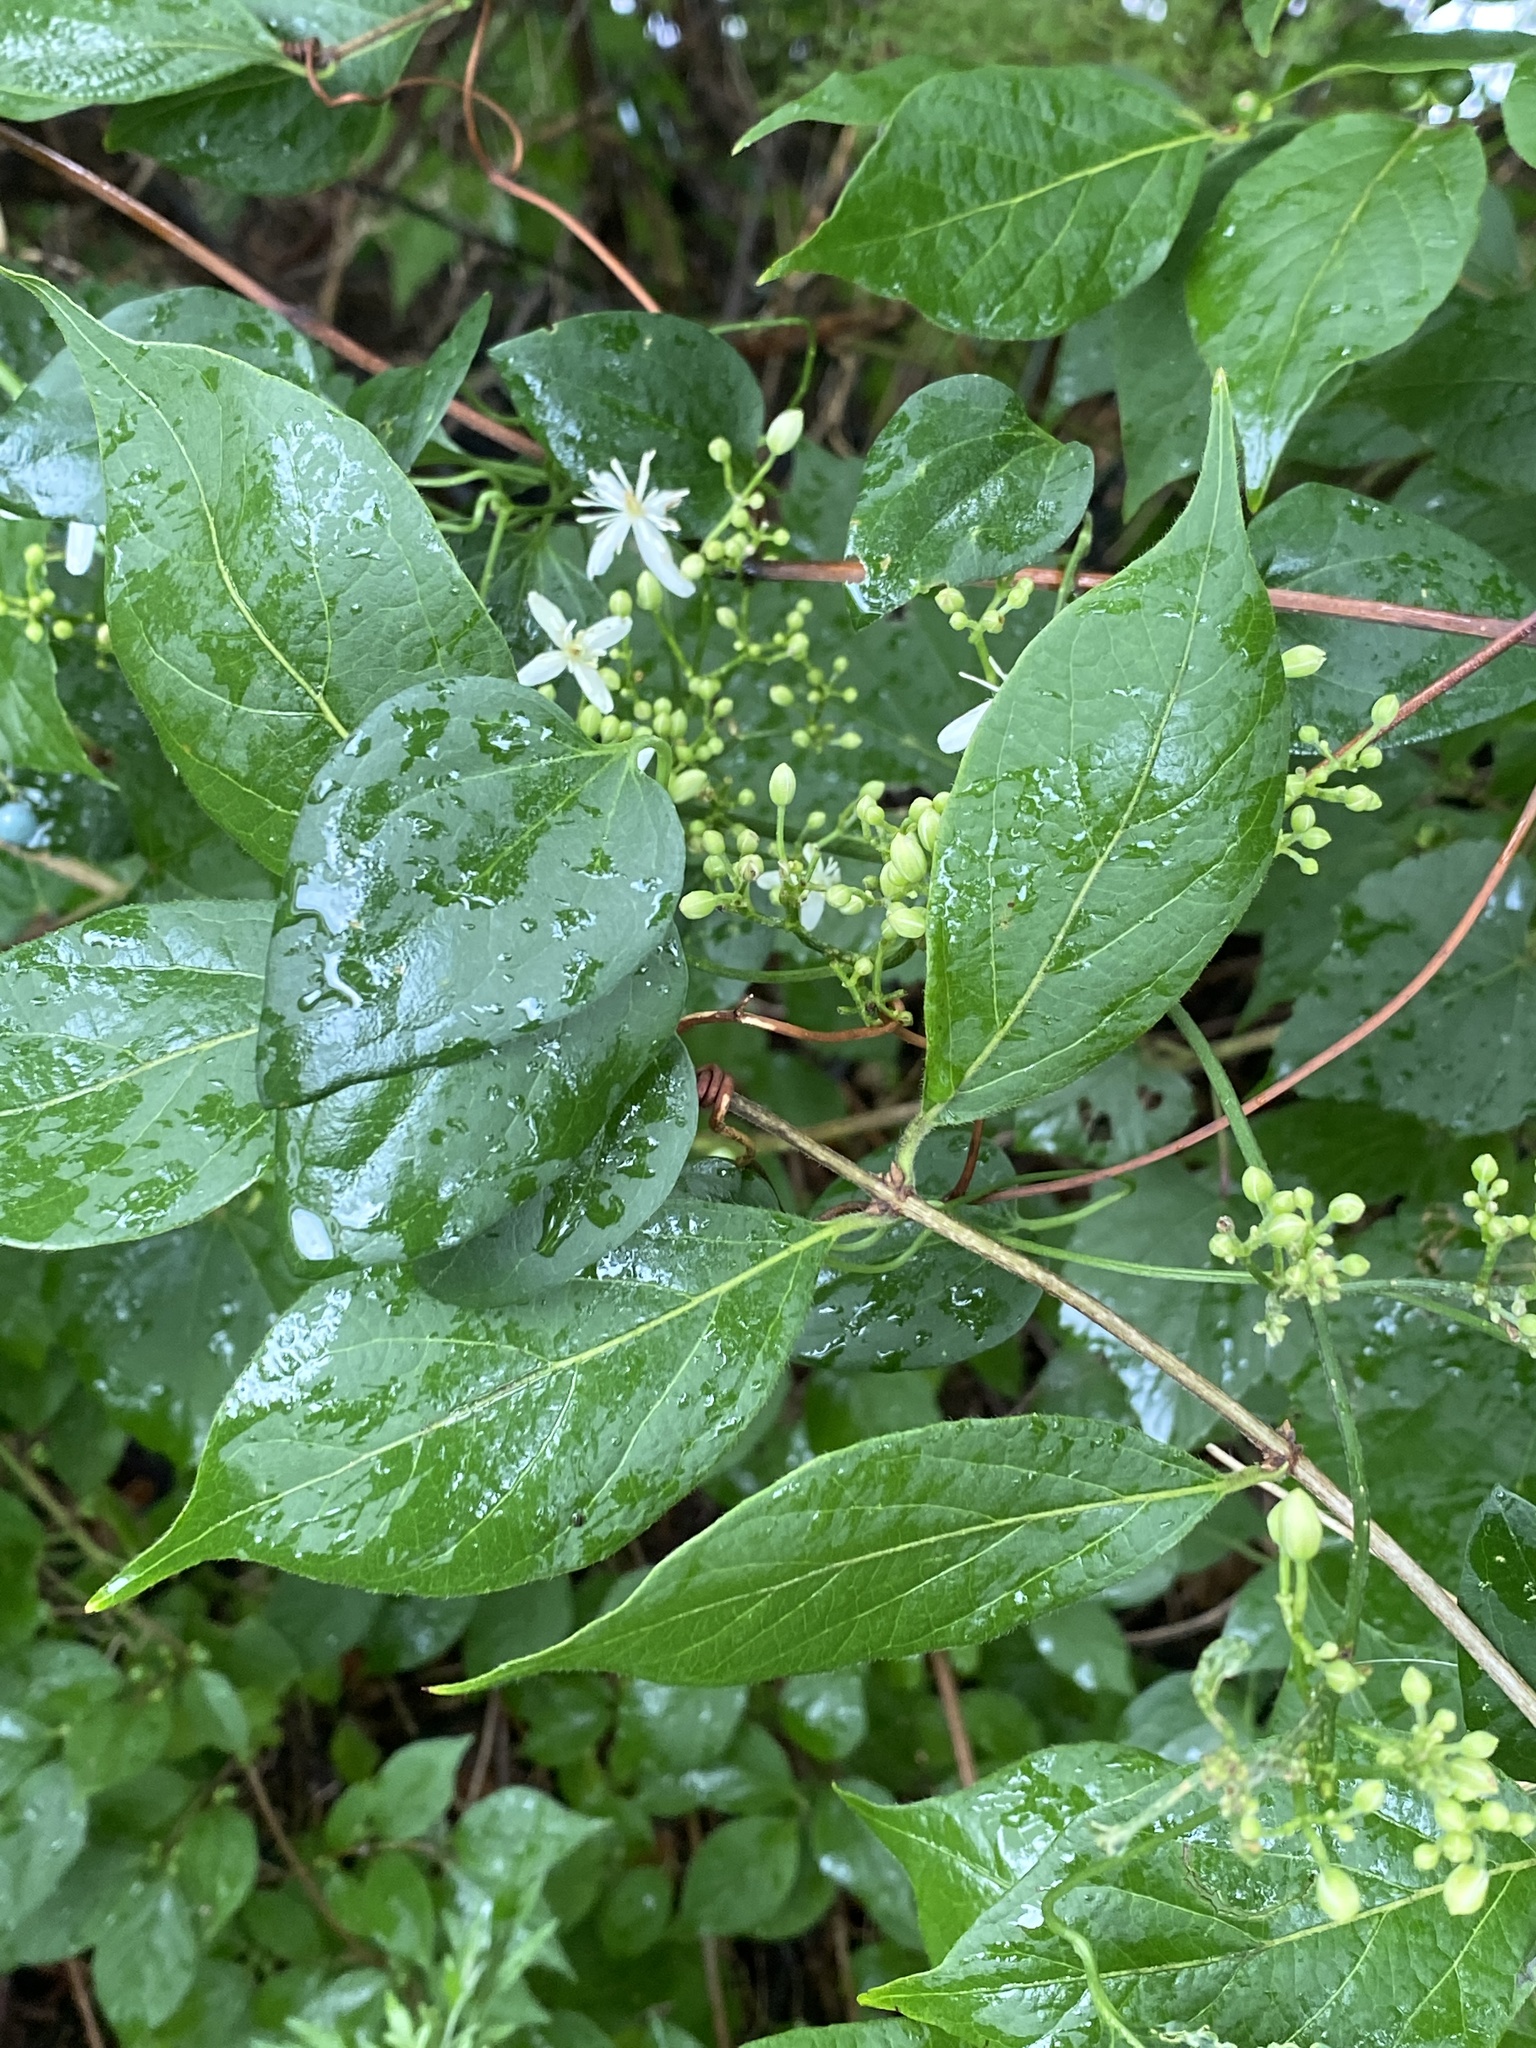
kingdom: Plantae
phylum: Tracheophyta
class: Magnoliopsida
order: Ranunculales
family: Ranunculaceae
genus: Clematis
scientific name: Clematis terniflora
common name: Sweet autumn clematis
